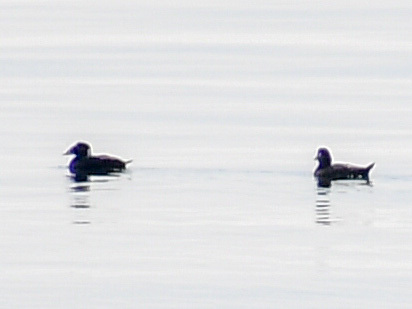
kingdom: Animalia
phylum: Chordata
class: Aves
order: Anseriformes
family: Anatidae
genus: Melanitta
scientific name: Melanitta perspicillata
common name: Surf scoter
